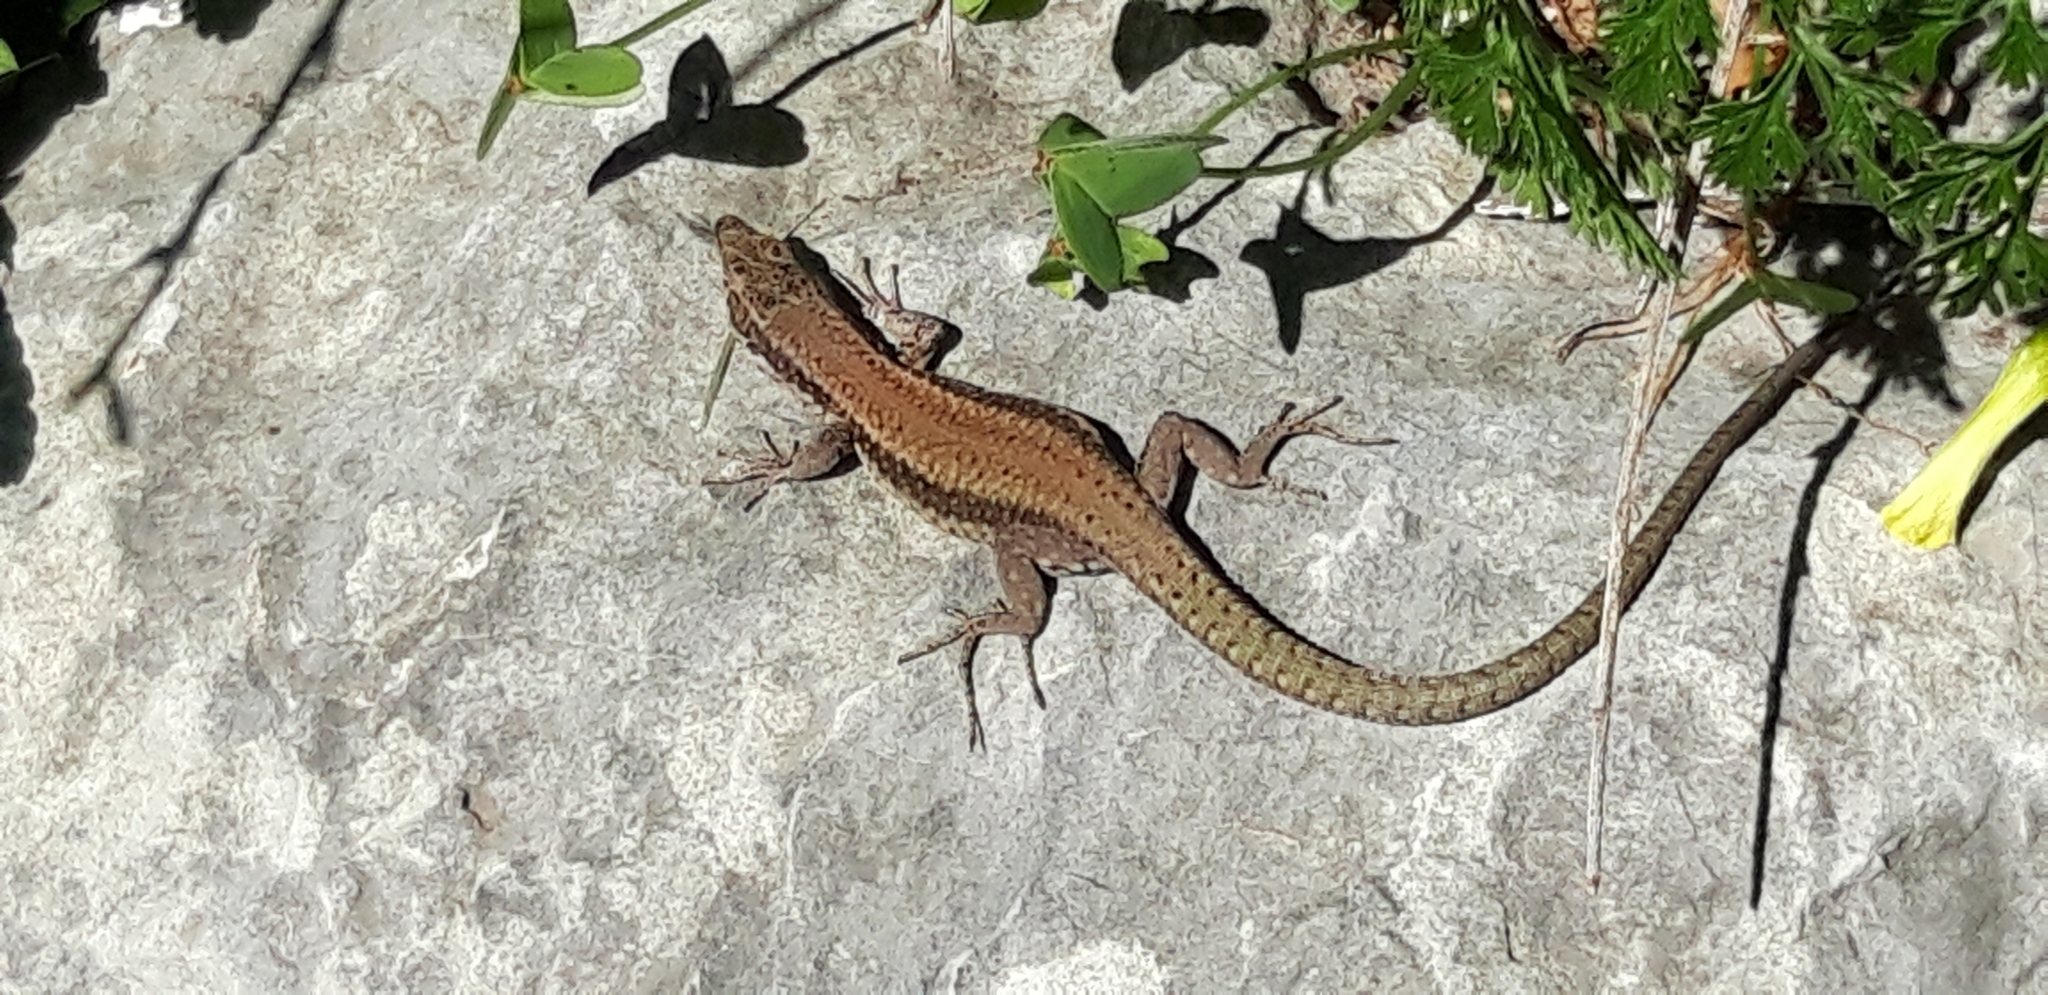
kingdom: Animalia
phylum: Chordata
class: Squamata
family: Lacertidae
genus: Podarcis
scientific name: Podarcis vaucheri
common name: Vaucher's wall lizard
